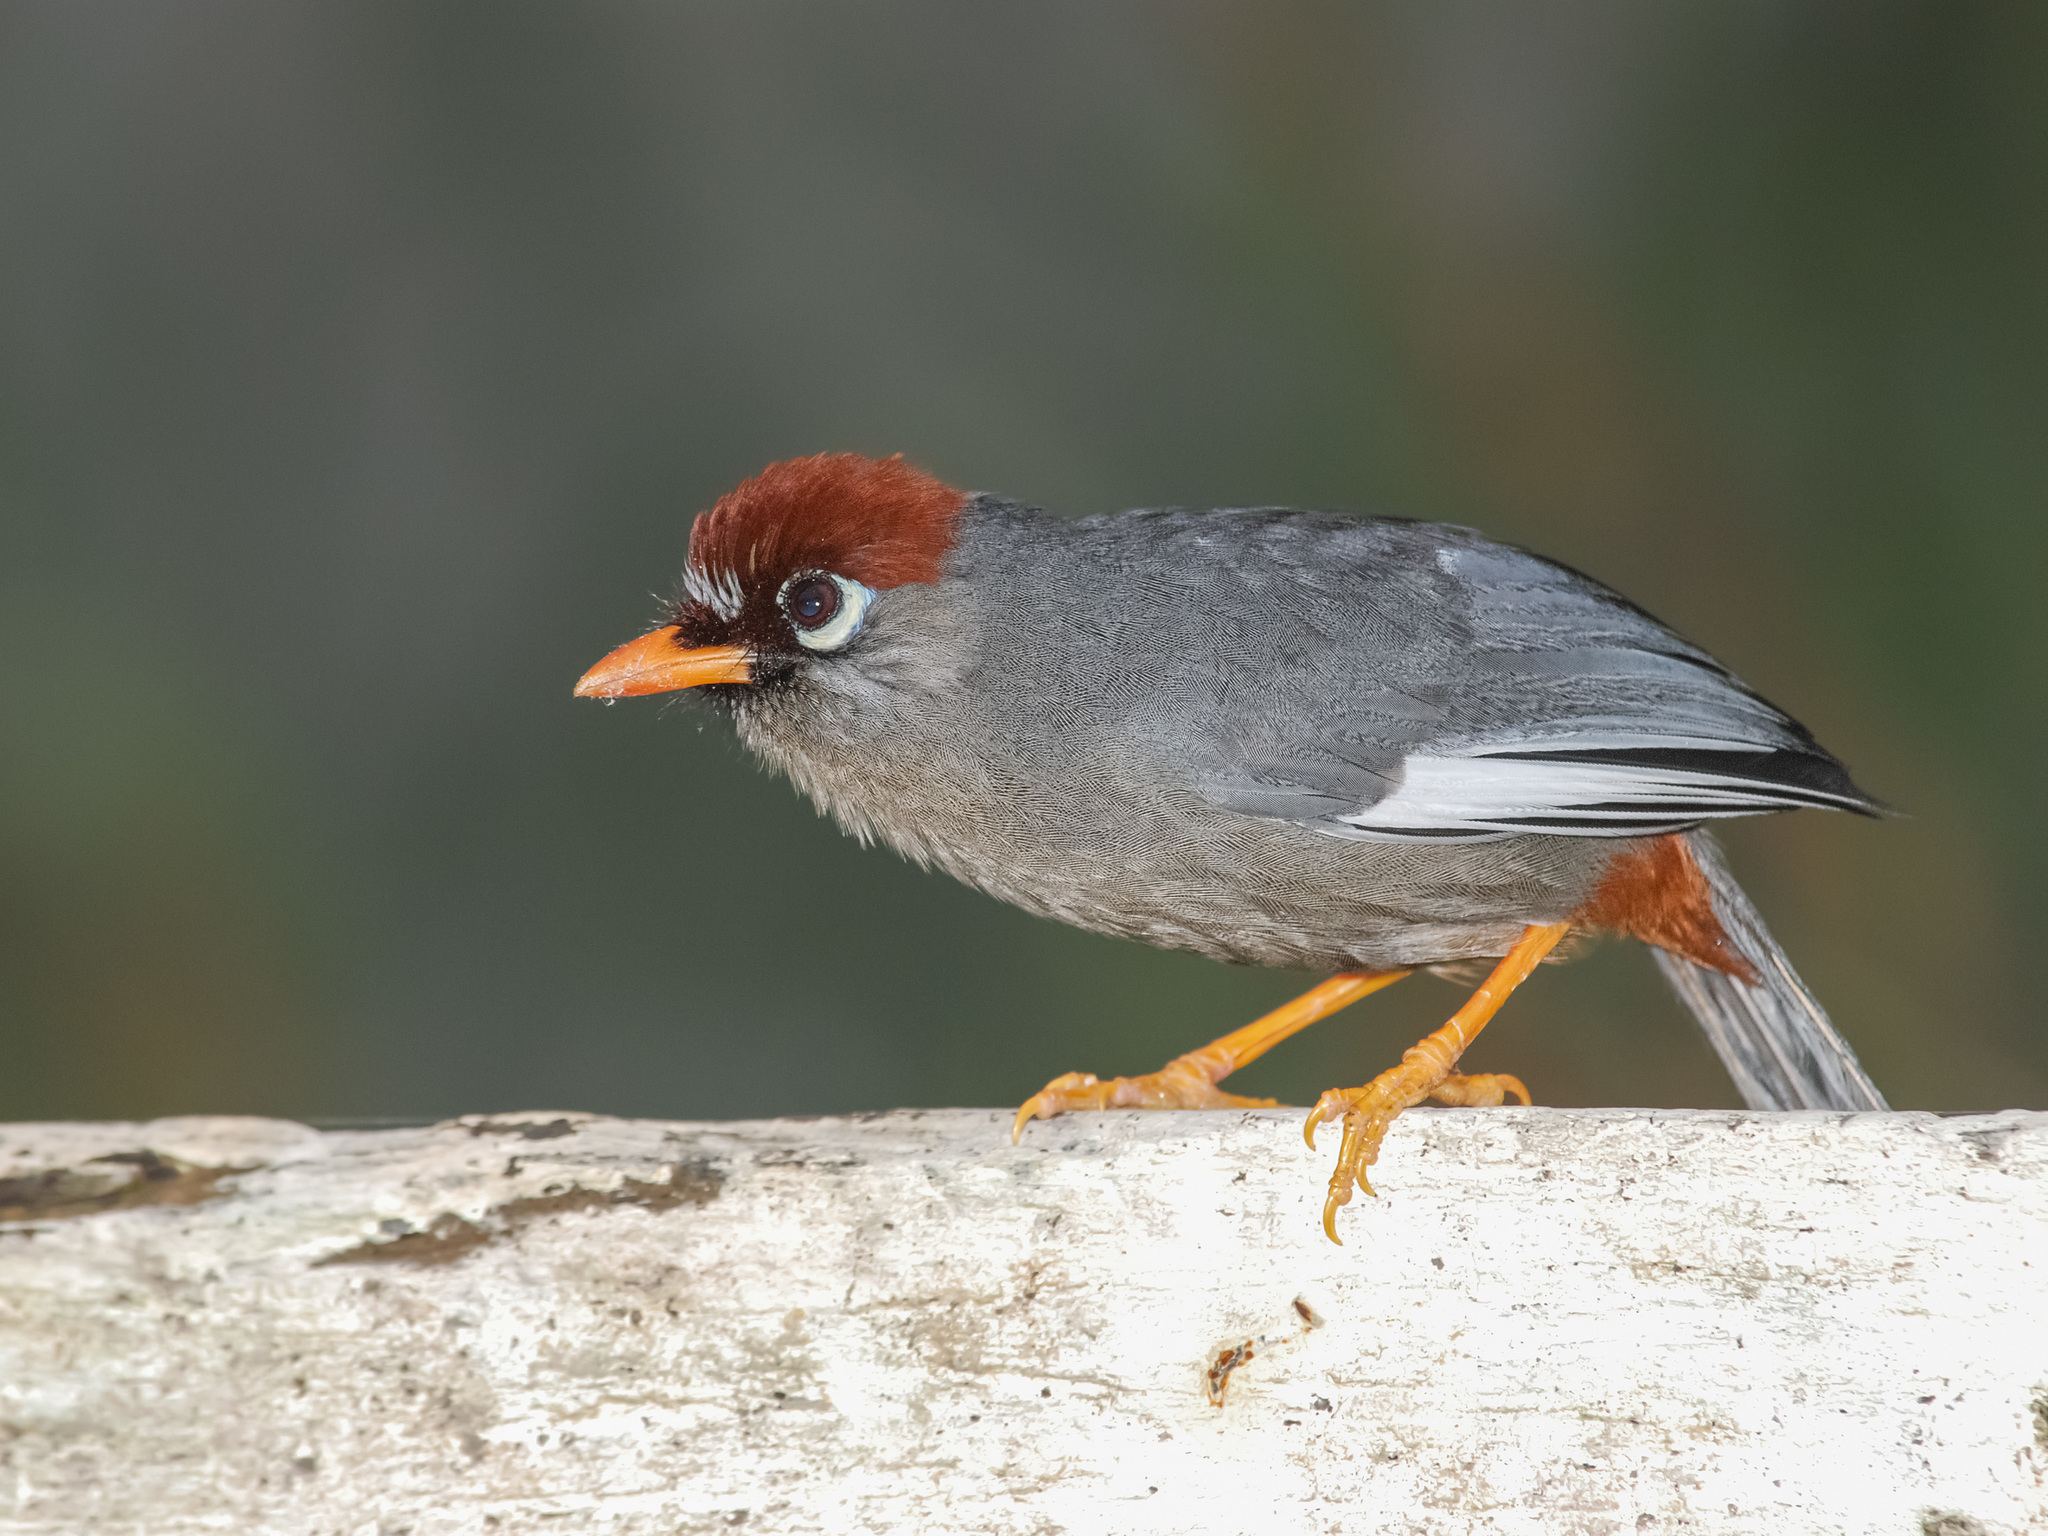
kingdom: Animalia
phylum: Chordata
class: Aves
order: Passeriformes
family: Leiothrichidae
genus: Garrulax
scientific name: Garrulax mitratus
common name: Chestnut-capped laughingthrush
